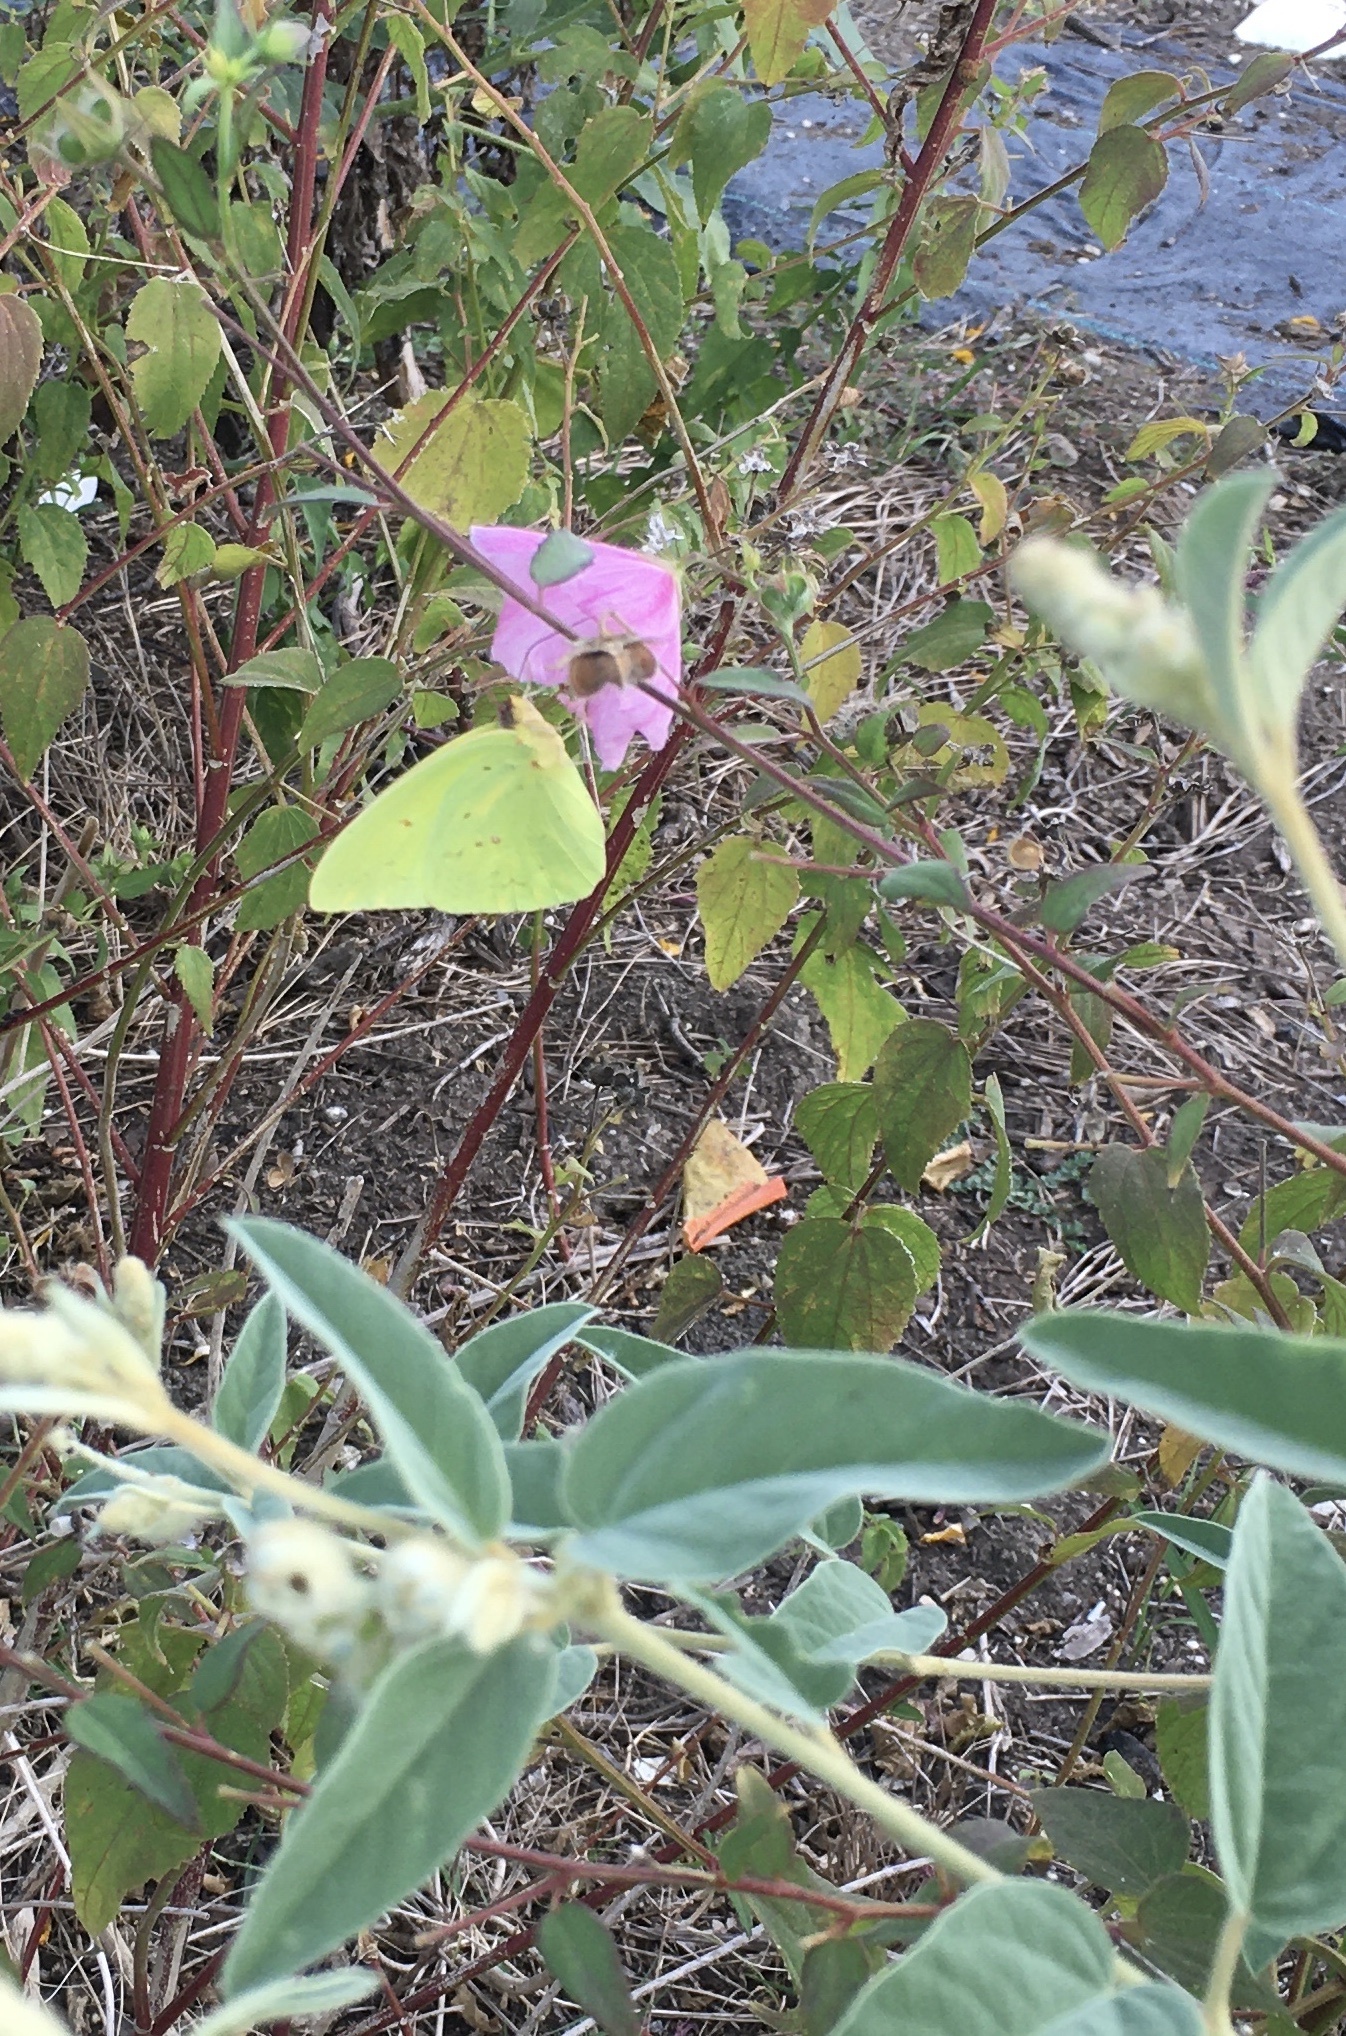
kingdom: Animalia
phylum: Arthropoda
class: Insecta
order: Lepidoptera
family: Pieridae
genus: Phoebis
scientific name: Phoebis sennae
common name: Cloudless sulphur
